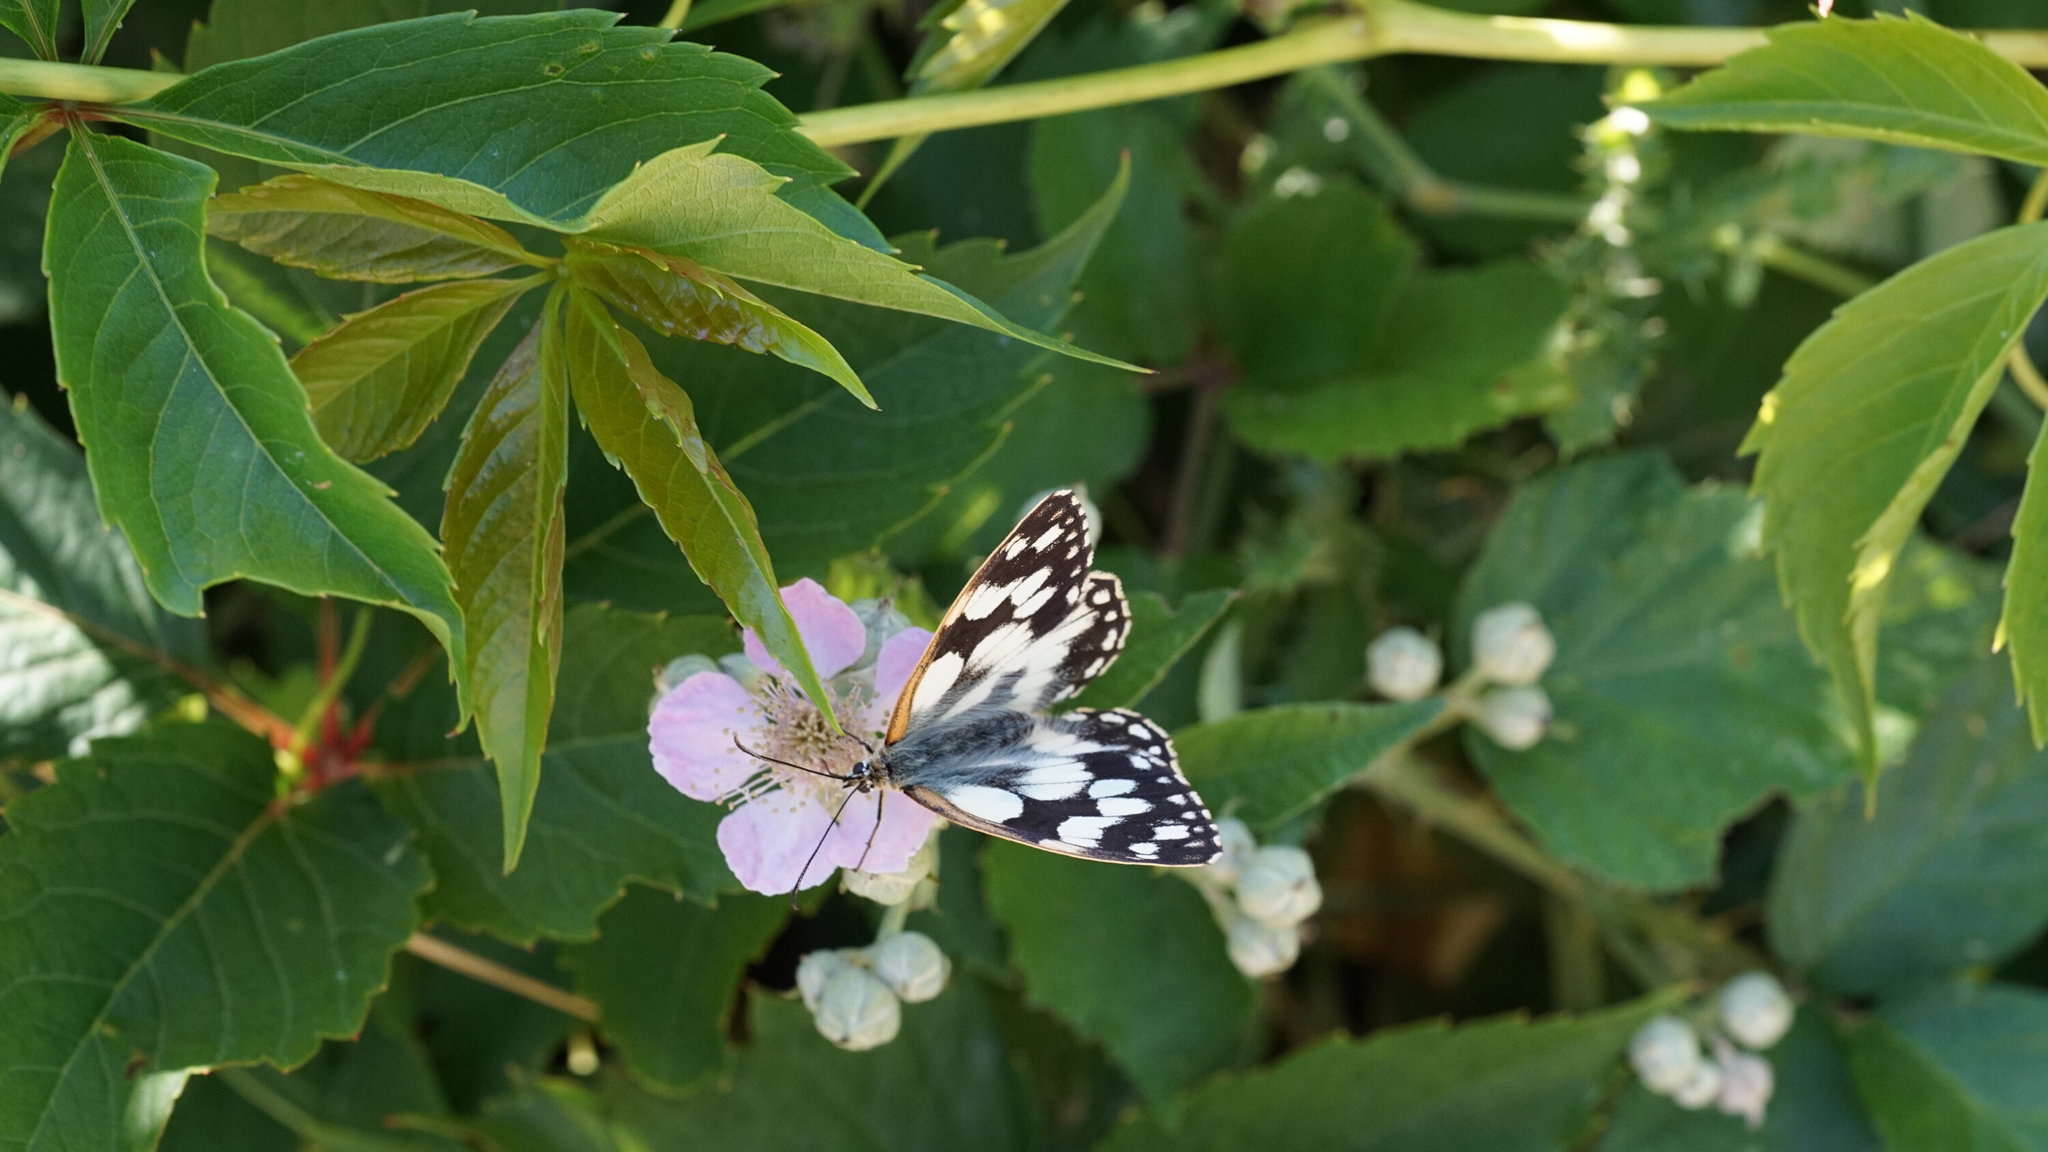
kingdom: Animalia
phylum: Arthropoda
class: Insecta
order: Lepidoptera
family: Nymphalidae
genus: Melanargia
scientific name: Melanargia galathea
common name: Marbled white
